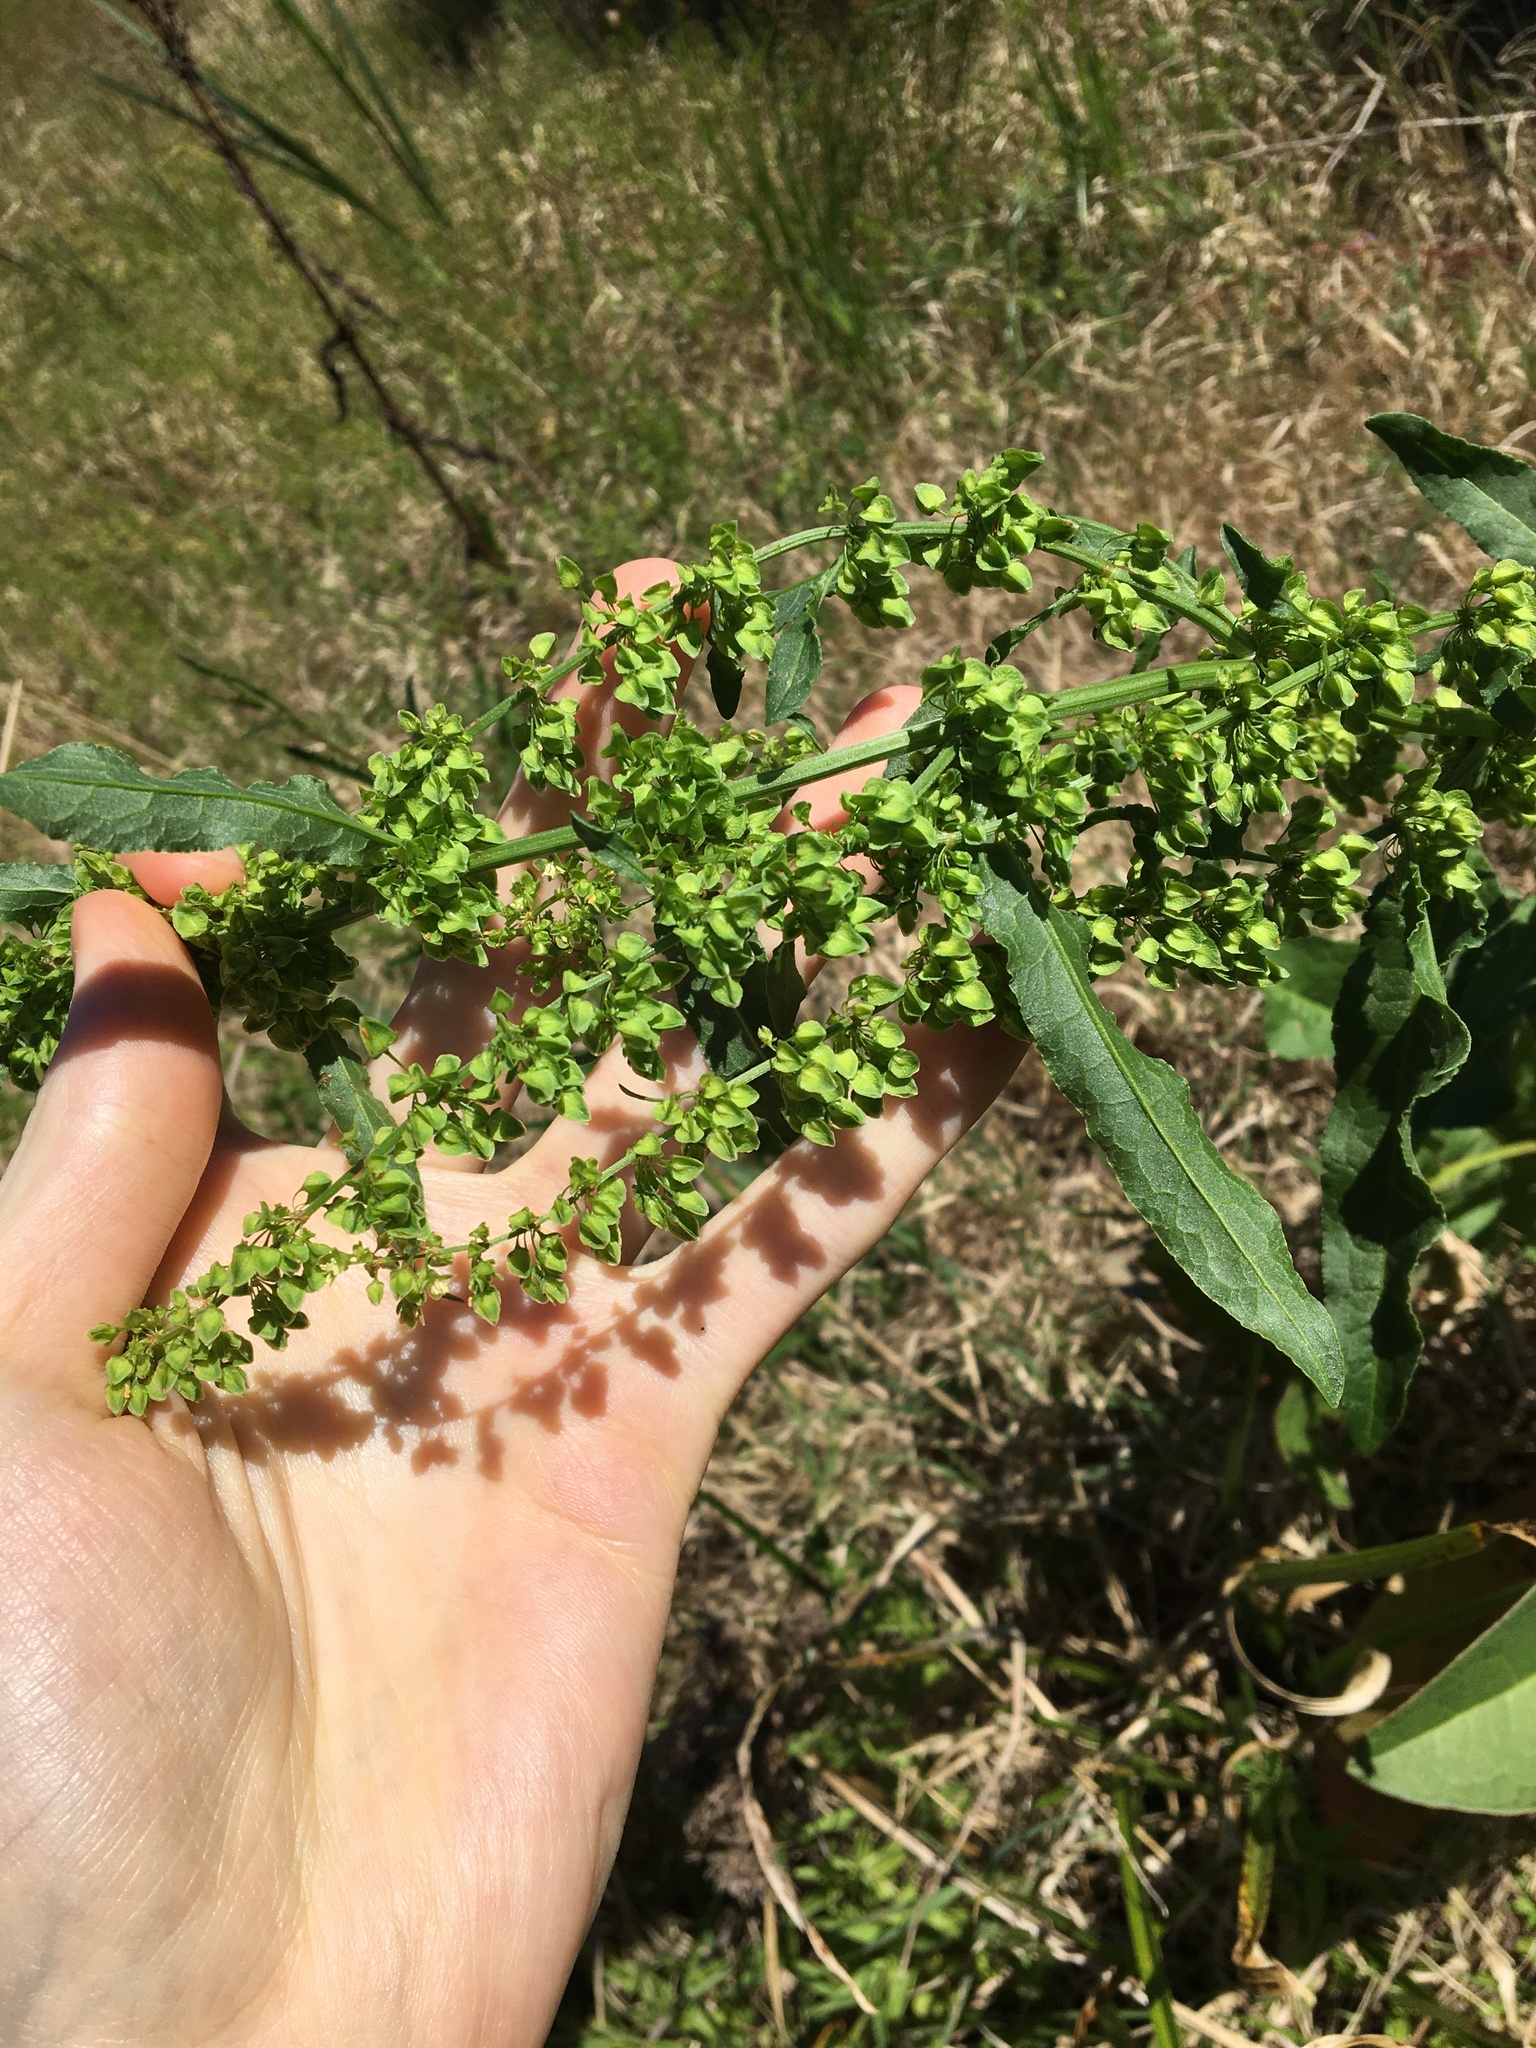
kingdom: Plantae
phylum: Tracheophyta
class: Magnoliopsida
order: Caryophyllales
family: Polygonaceae
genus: Rumex
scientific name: Rumex crispus
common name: Curled dock
